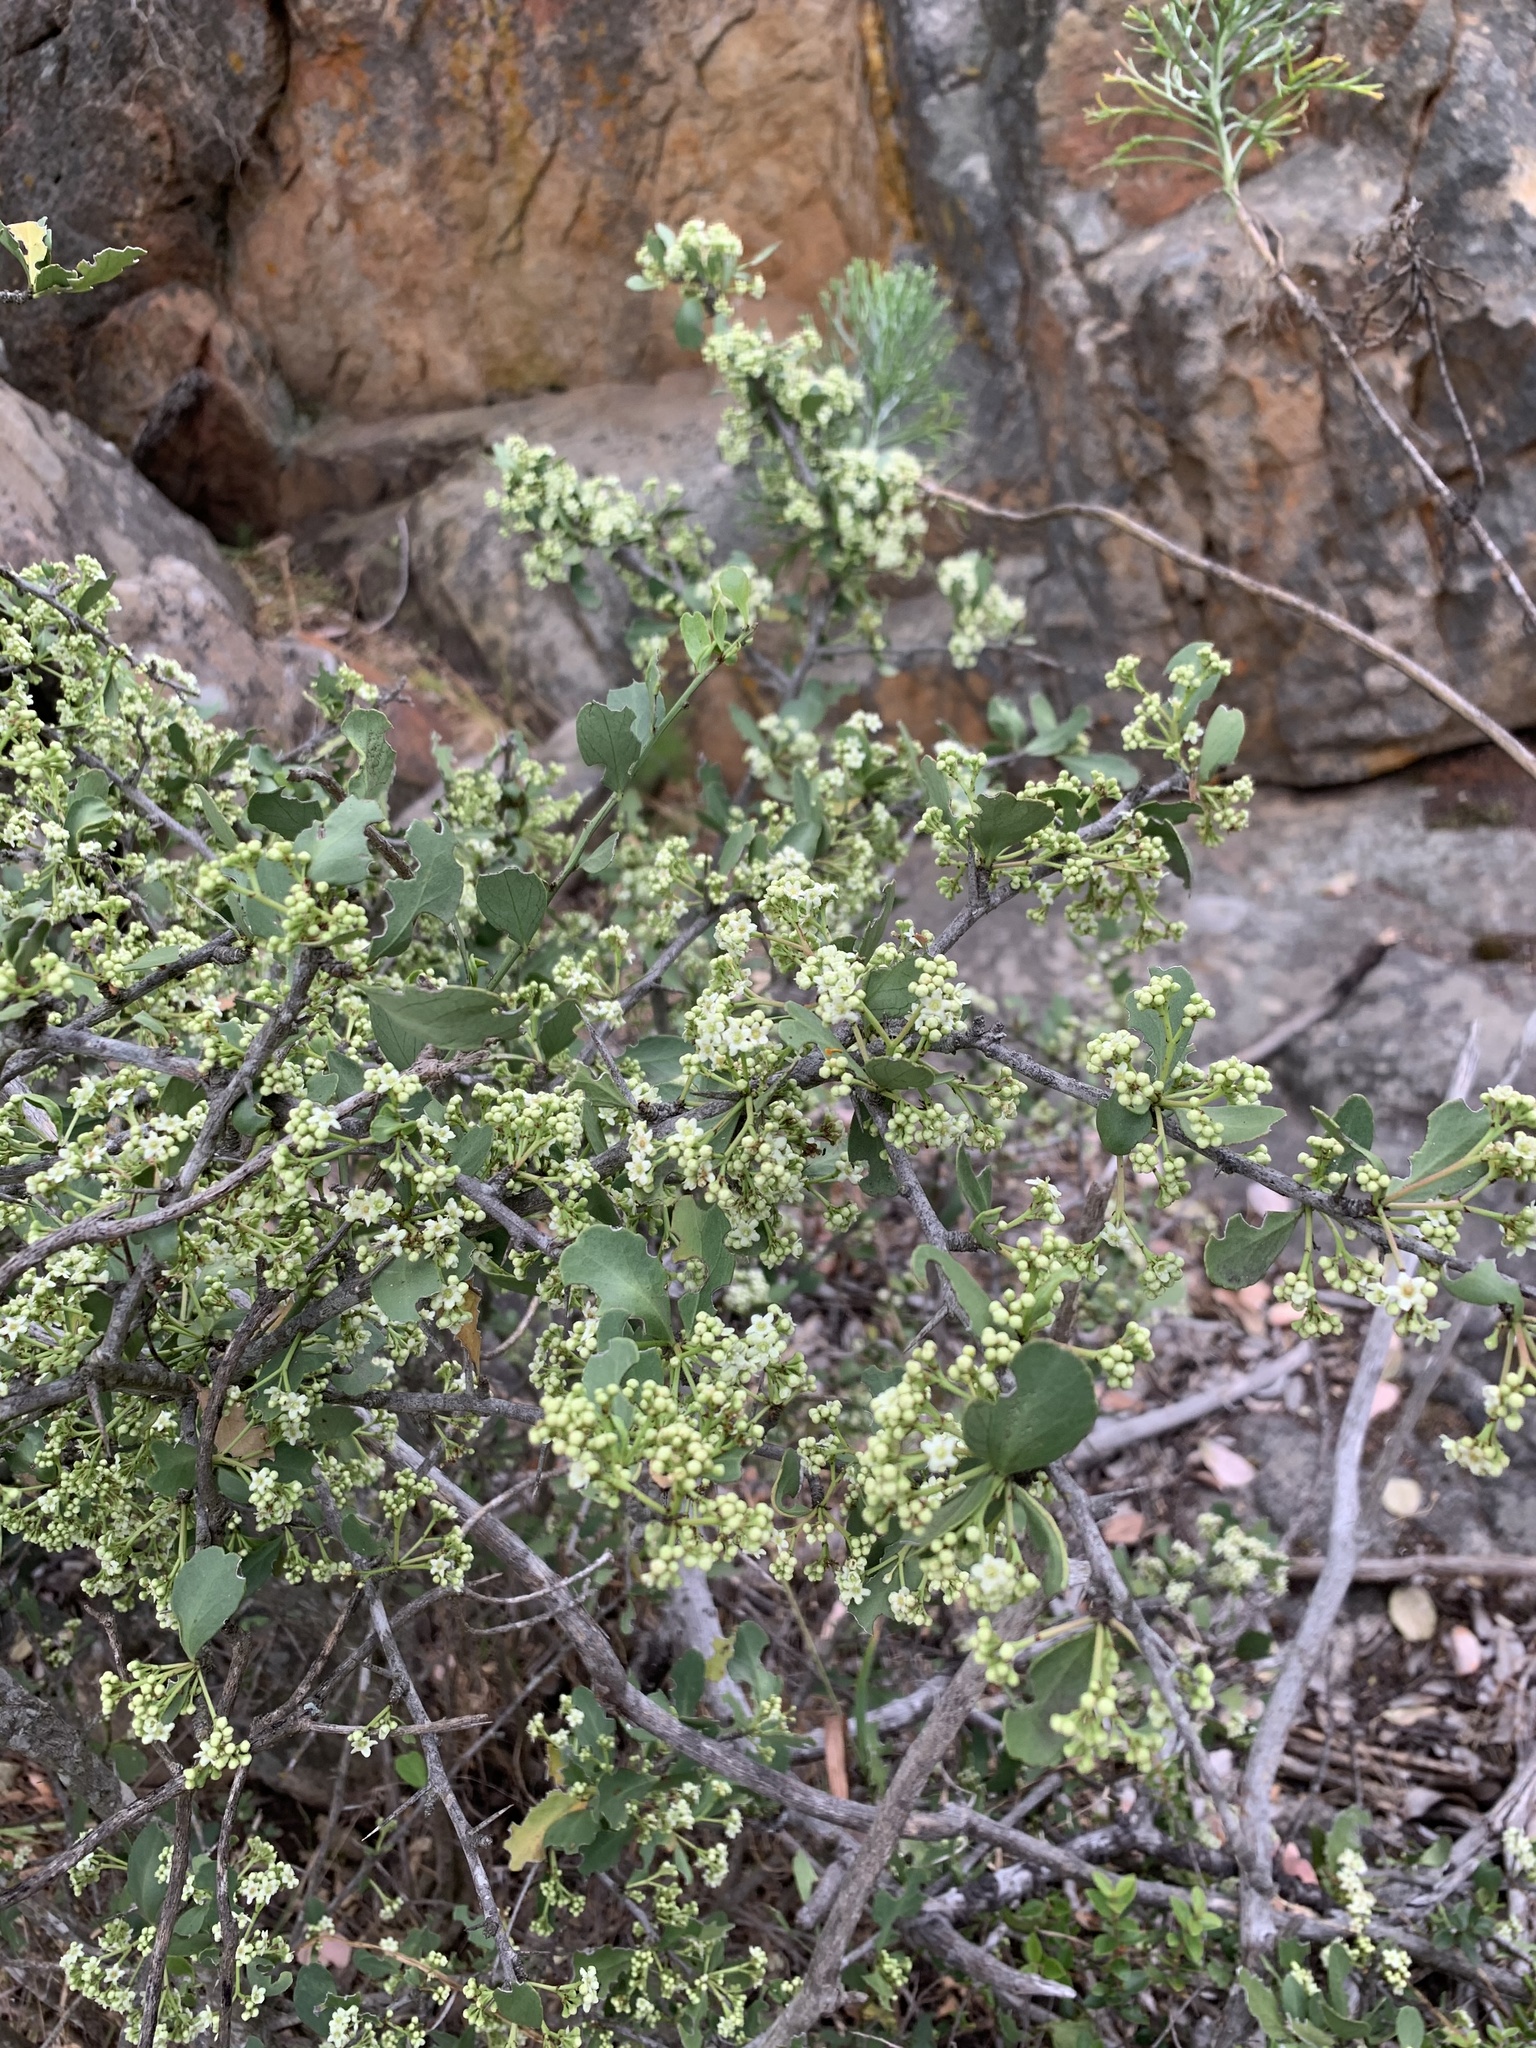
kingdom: Plantae
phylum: Tracheophyta
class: Magnoliopsida
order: Celastrales
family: Celastraceae
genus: Gymnosporia
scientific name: Gymnosporia buxifolia
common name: Common spike-thorn
